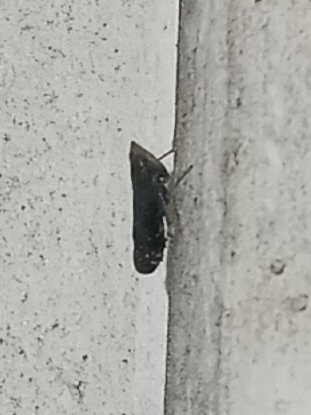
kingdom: Animalia
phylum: Arthropoda
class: Insecta
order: Hemiptera
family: Cicadellidae
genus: Scaphytopius
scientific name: Scaphytopius frontalis
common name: The yellow-faced leafhopper
